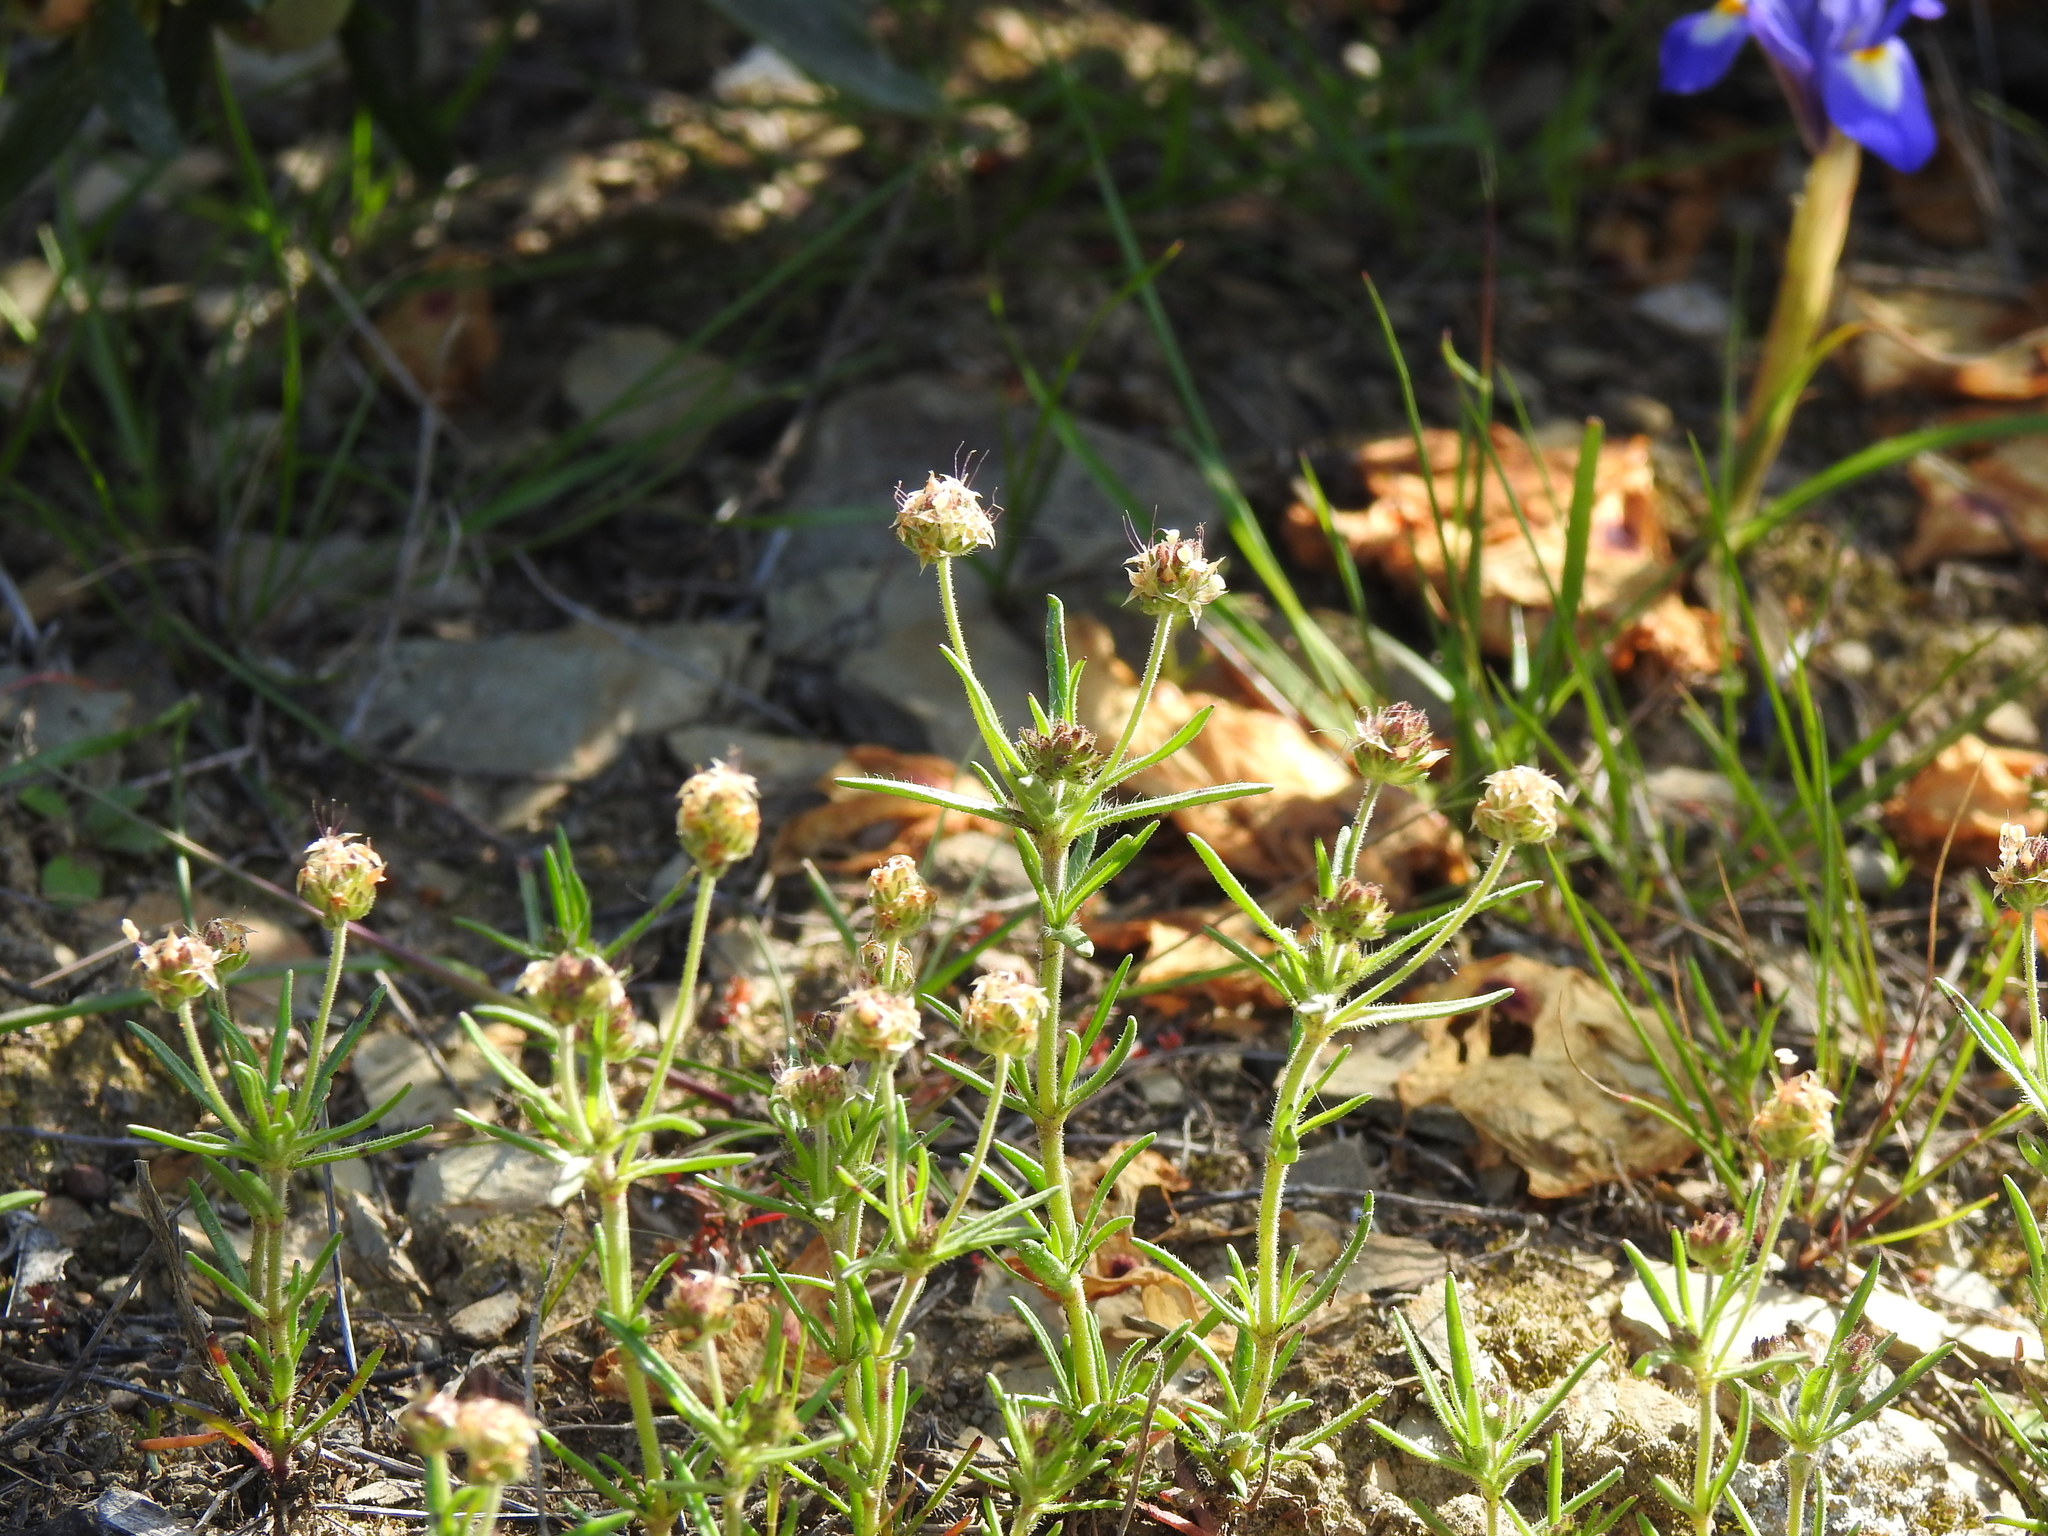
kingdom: Plantae
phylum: Tracheophyta
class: Magnoliopsida
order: Lamiales
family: Plantaginaceae
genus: Plantago
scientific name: Plantago afra
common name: Glandular plantain
